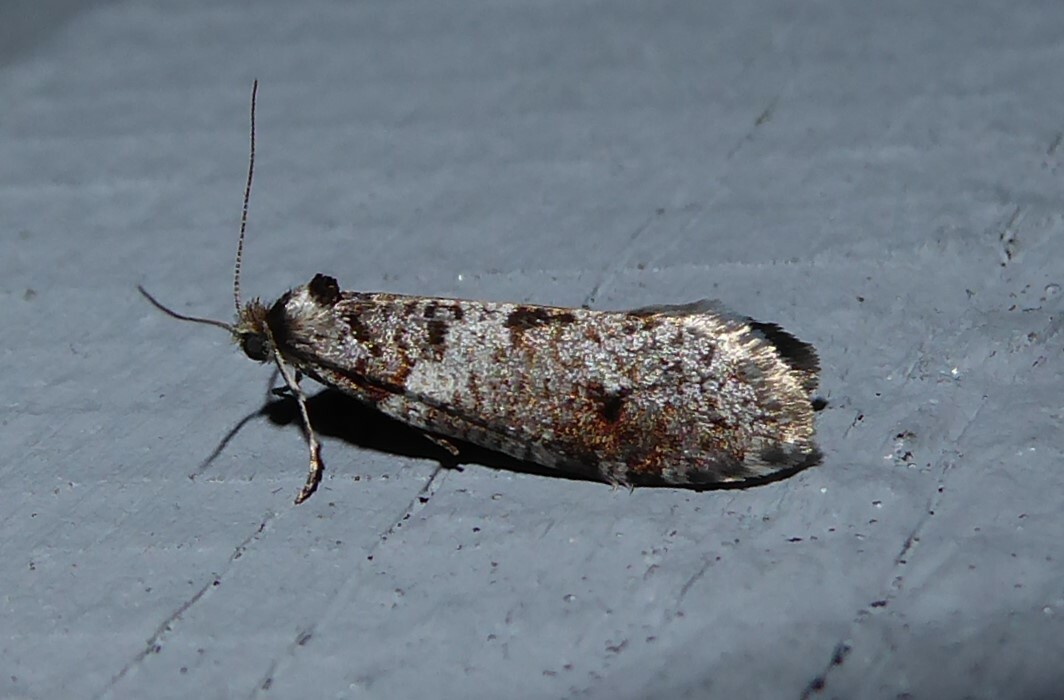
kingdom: Animalia
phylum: Arthropoda
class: Insecta
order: Lepidoptera
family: Psychidae
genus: Lepidoscia
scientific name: Lepidoscia heliochares
